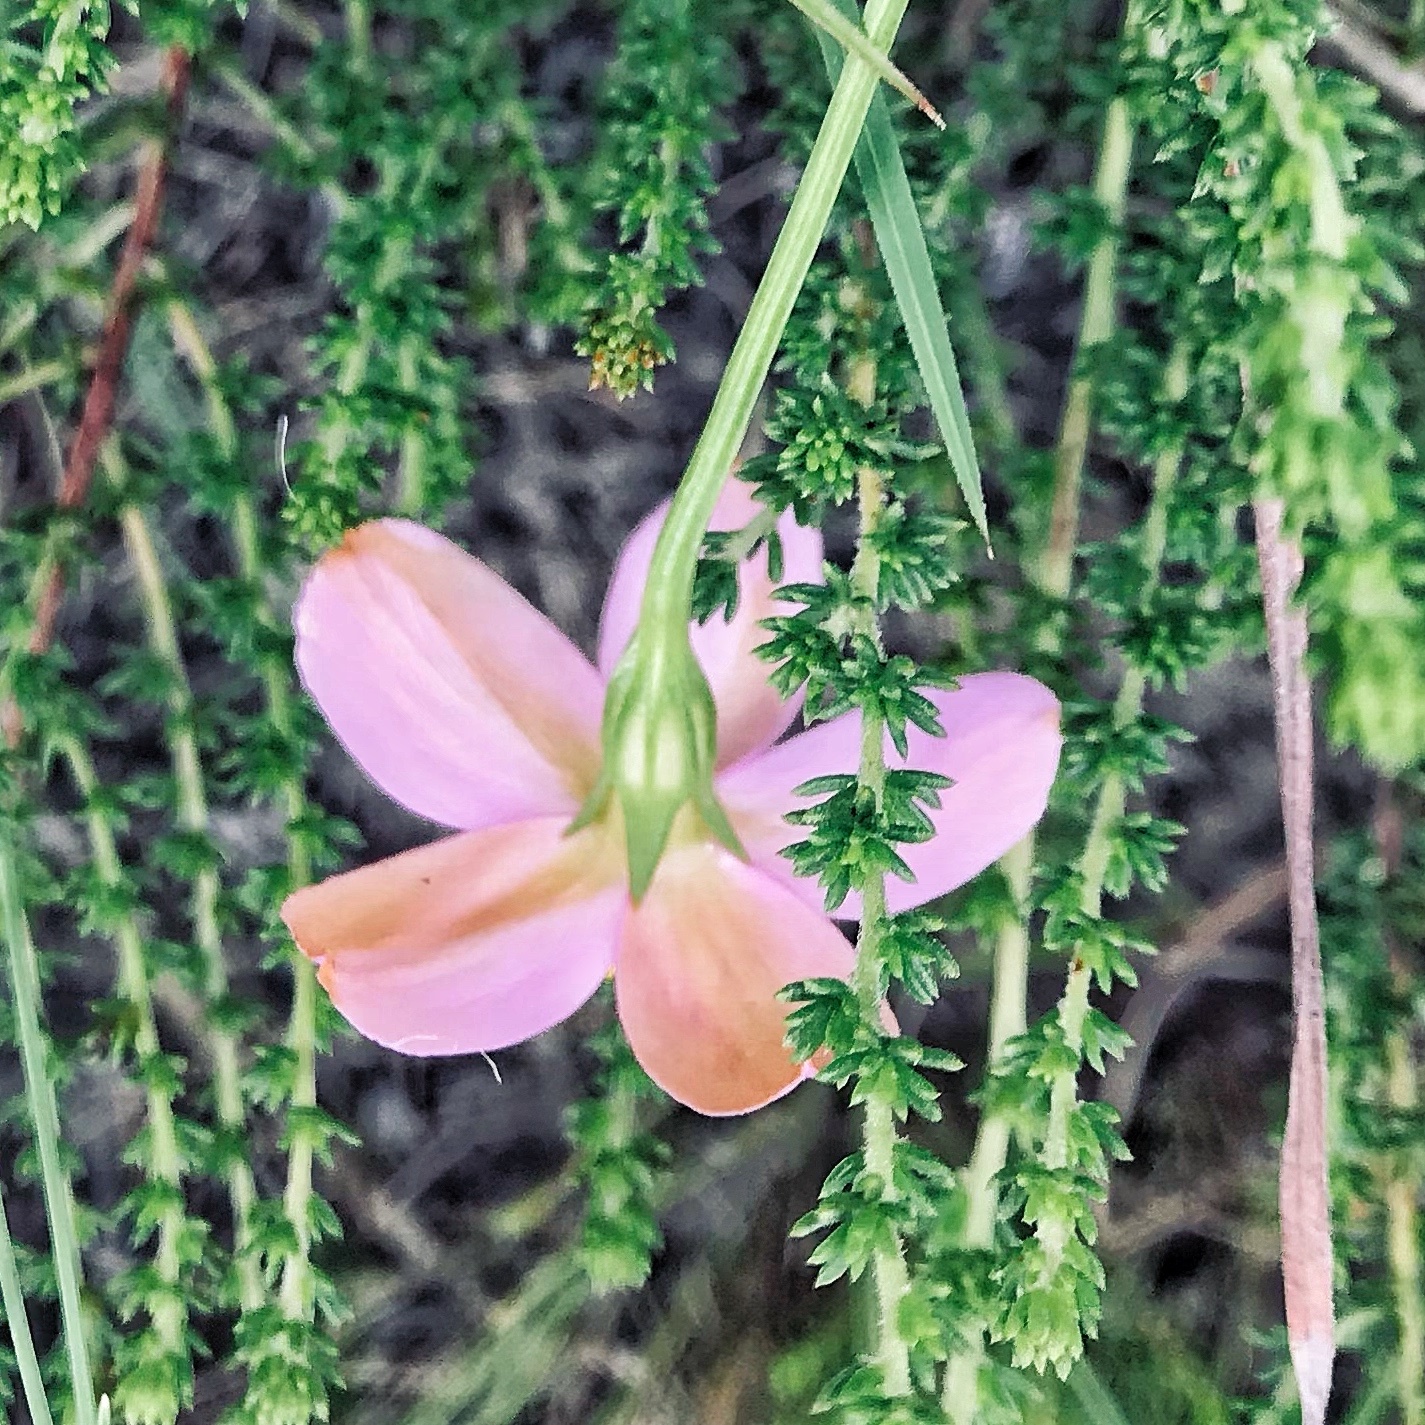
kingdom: Plantae
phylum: Tracheophyta
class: Magnoliopsida
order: Gentianales
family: Gentianaceae
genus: Chironia
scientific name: Chironia baccifera
